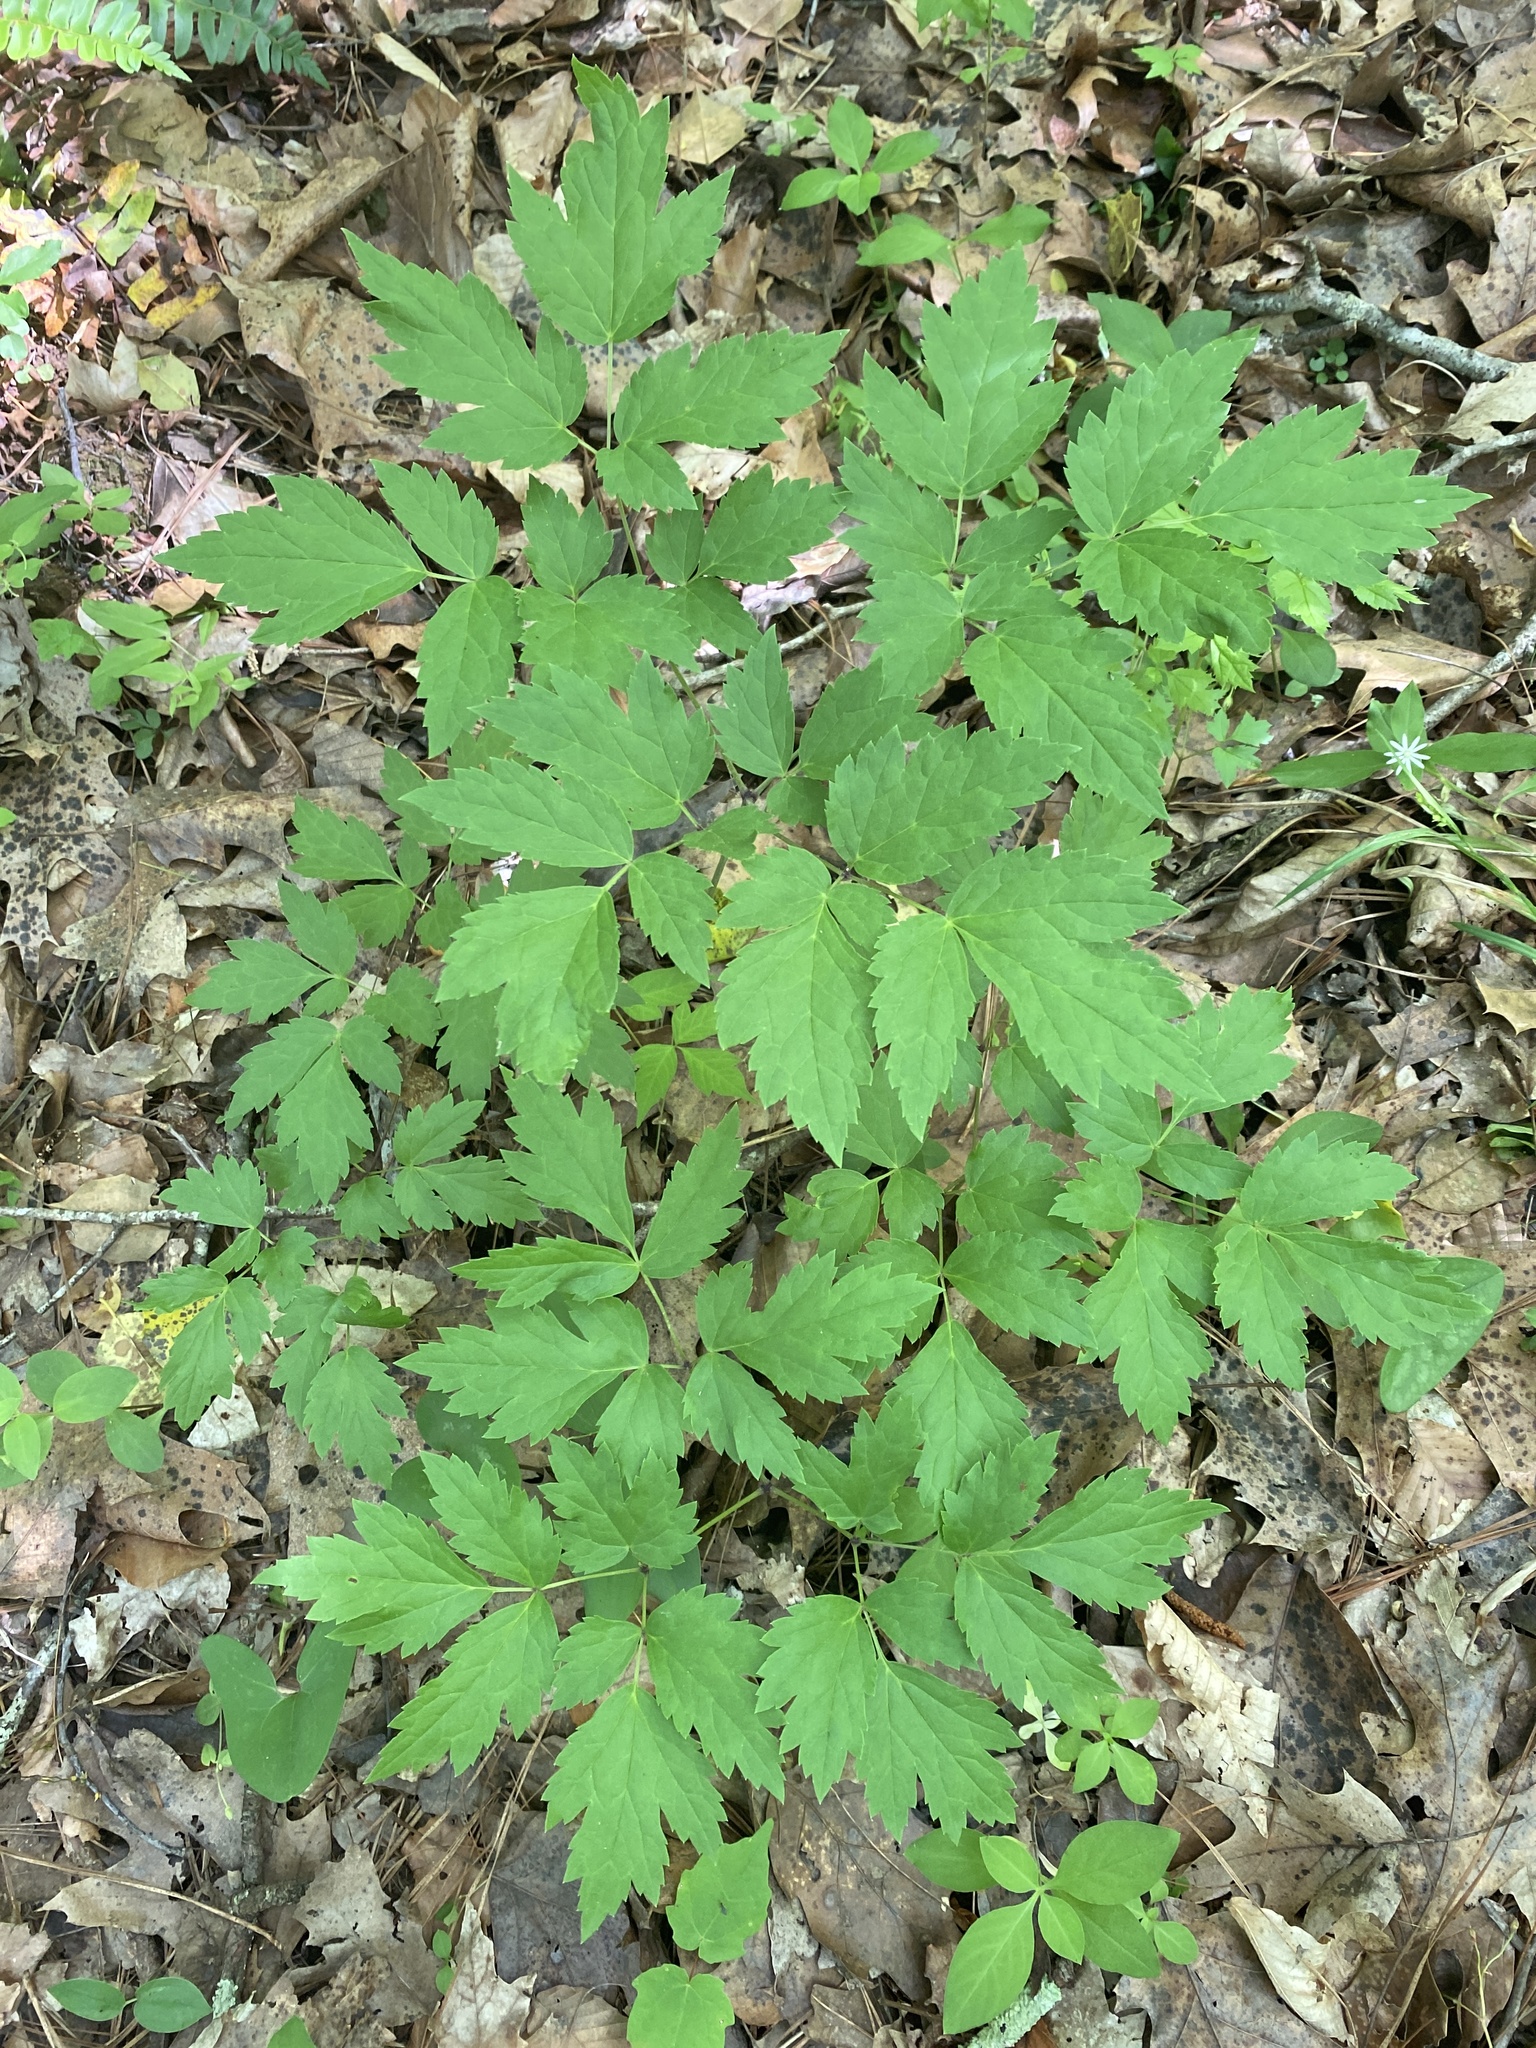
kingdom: Plantae
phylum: Tracheophyta
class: Magnoliopsida
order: Ranunculales
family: Ranunculaceae
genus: Actaea
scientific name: Actaea racemosa
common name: Black cohosh
